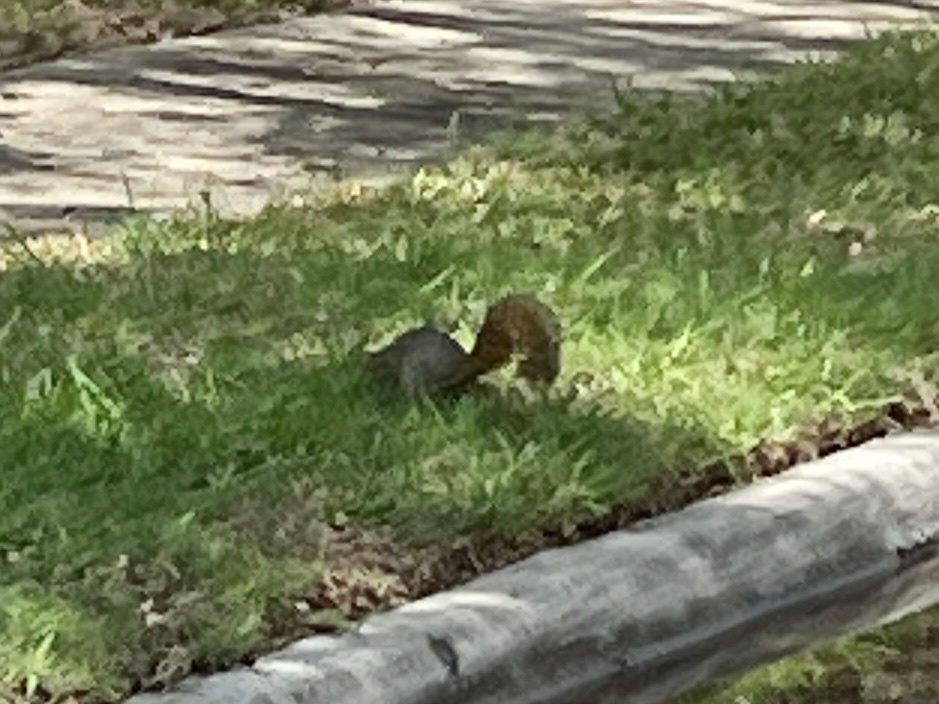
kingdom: Animalia
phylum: Chordata
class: Mammalia
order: Rodentia
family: Sciuridae
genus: Sciurus
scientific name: Sciurus niger
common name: Fox squirrel
